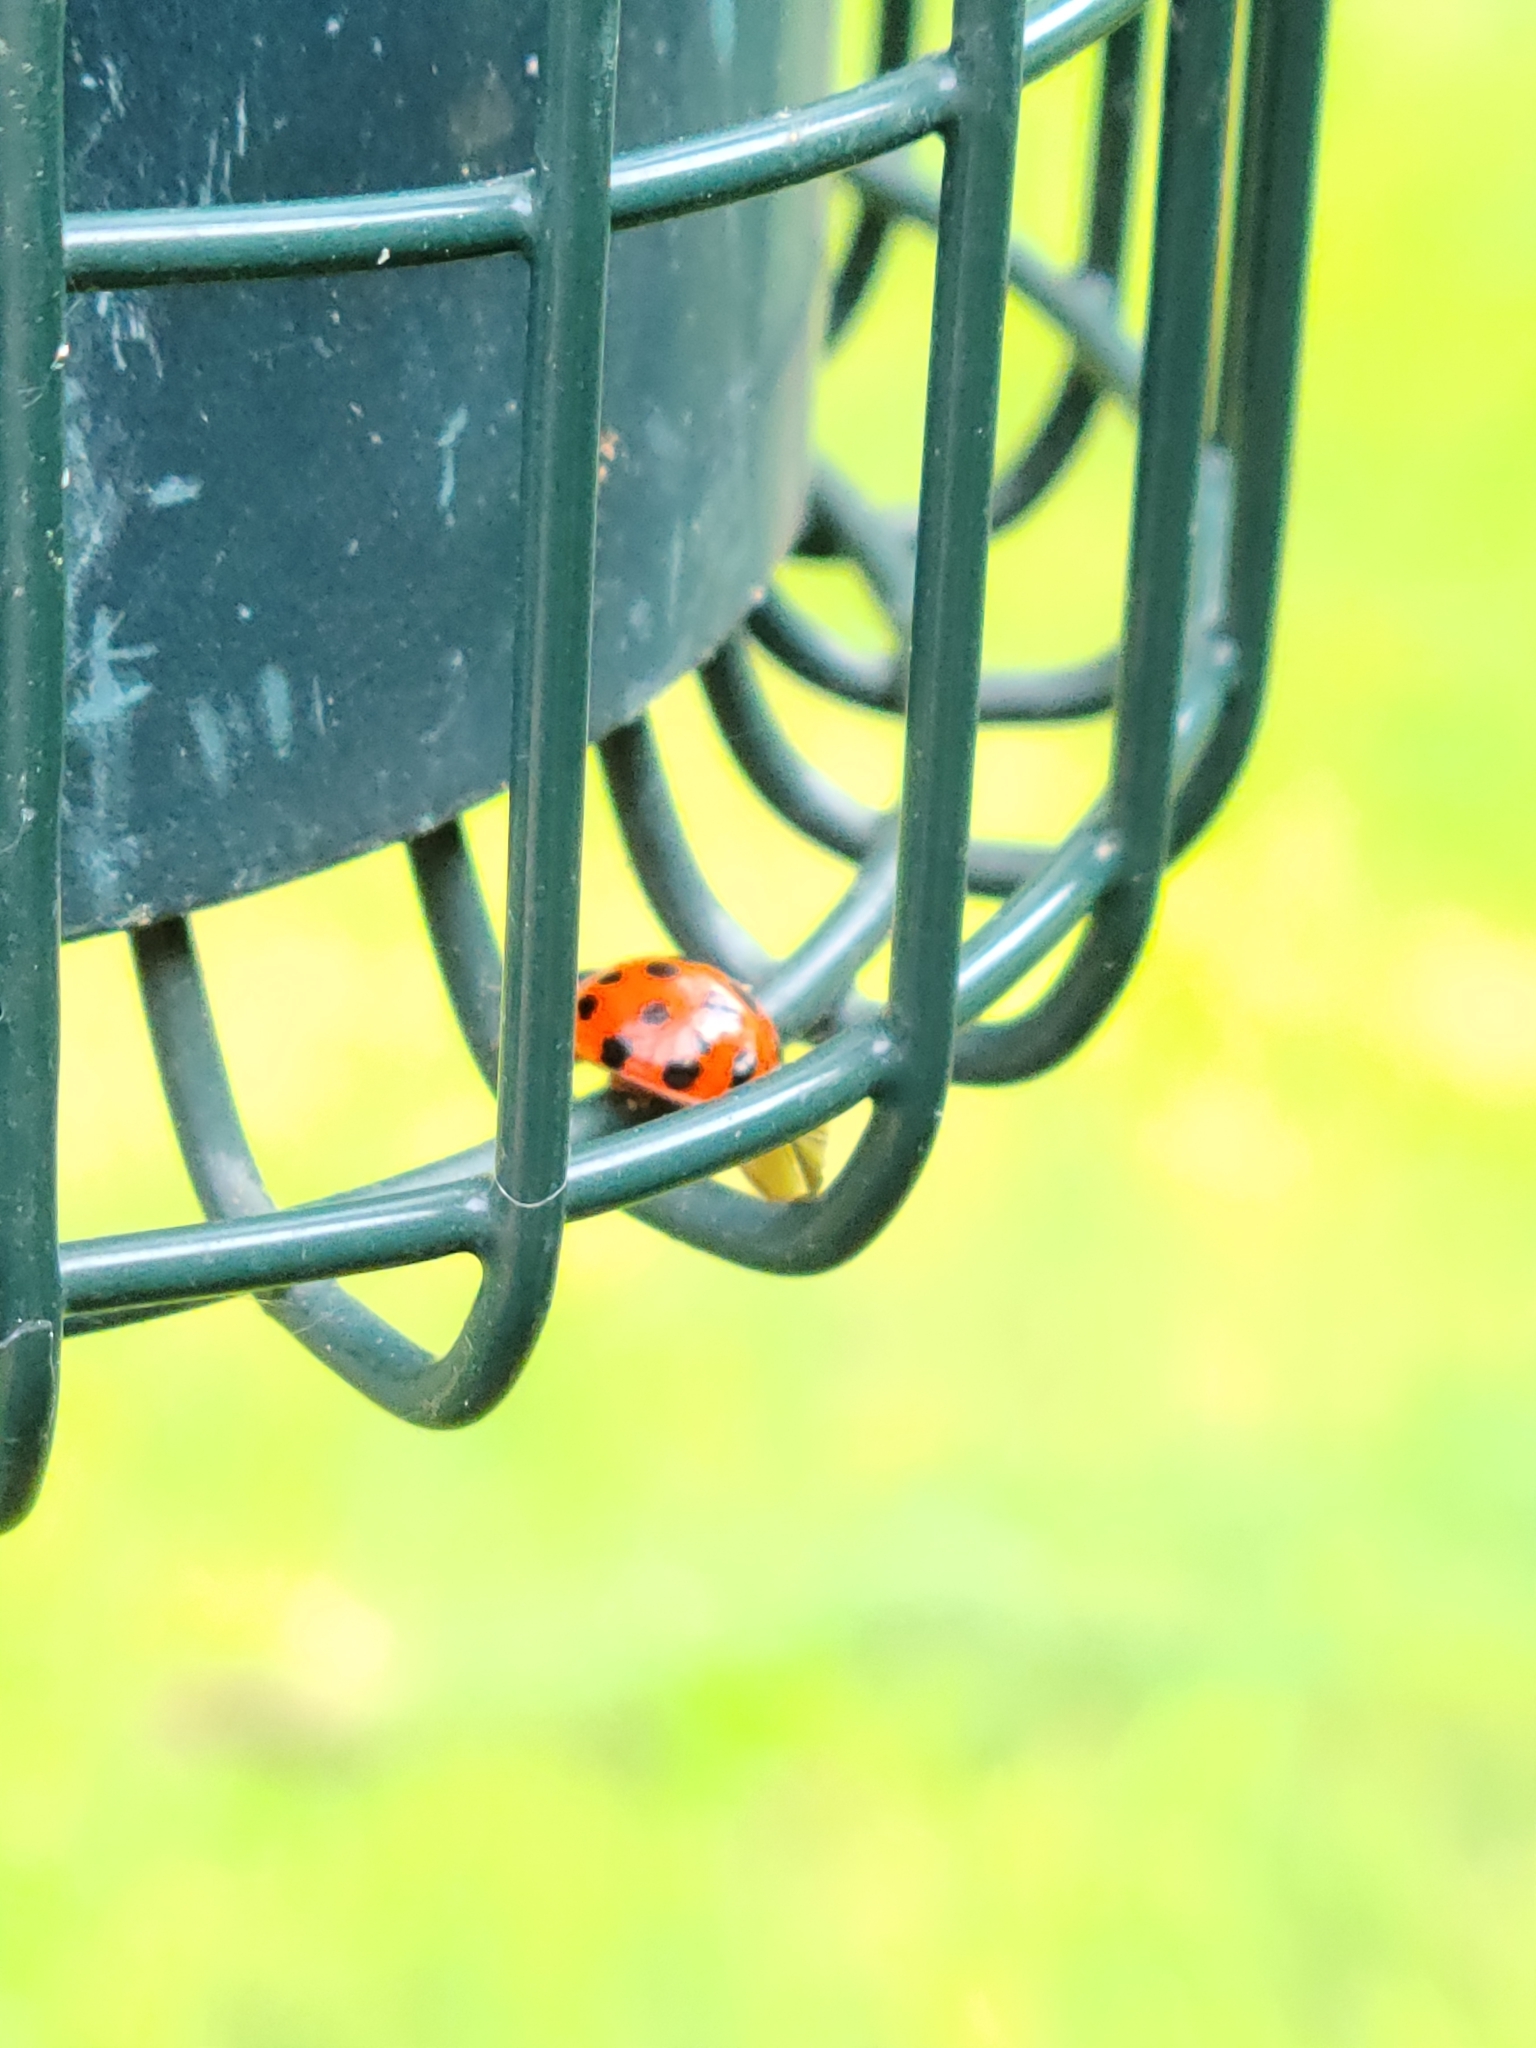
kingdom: Animalia
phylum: Arthropoda
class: Insecta
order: Coleoptera
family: Coccinellidae
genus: Harmonia
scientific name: Harmonia axyridis
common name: Harlequin ladybird
